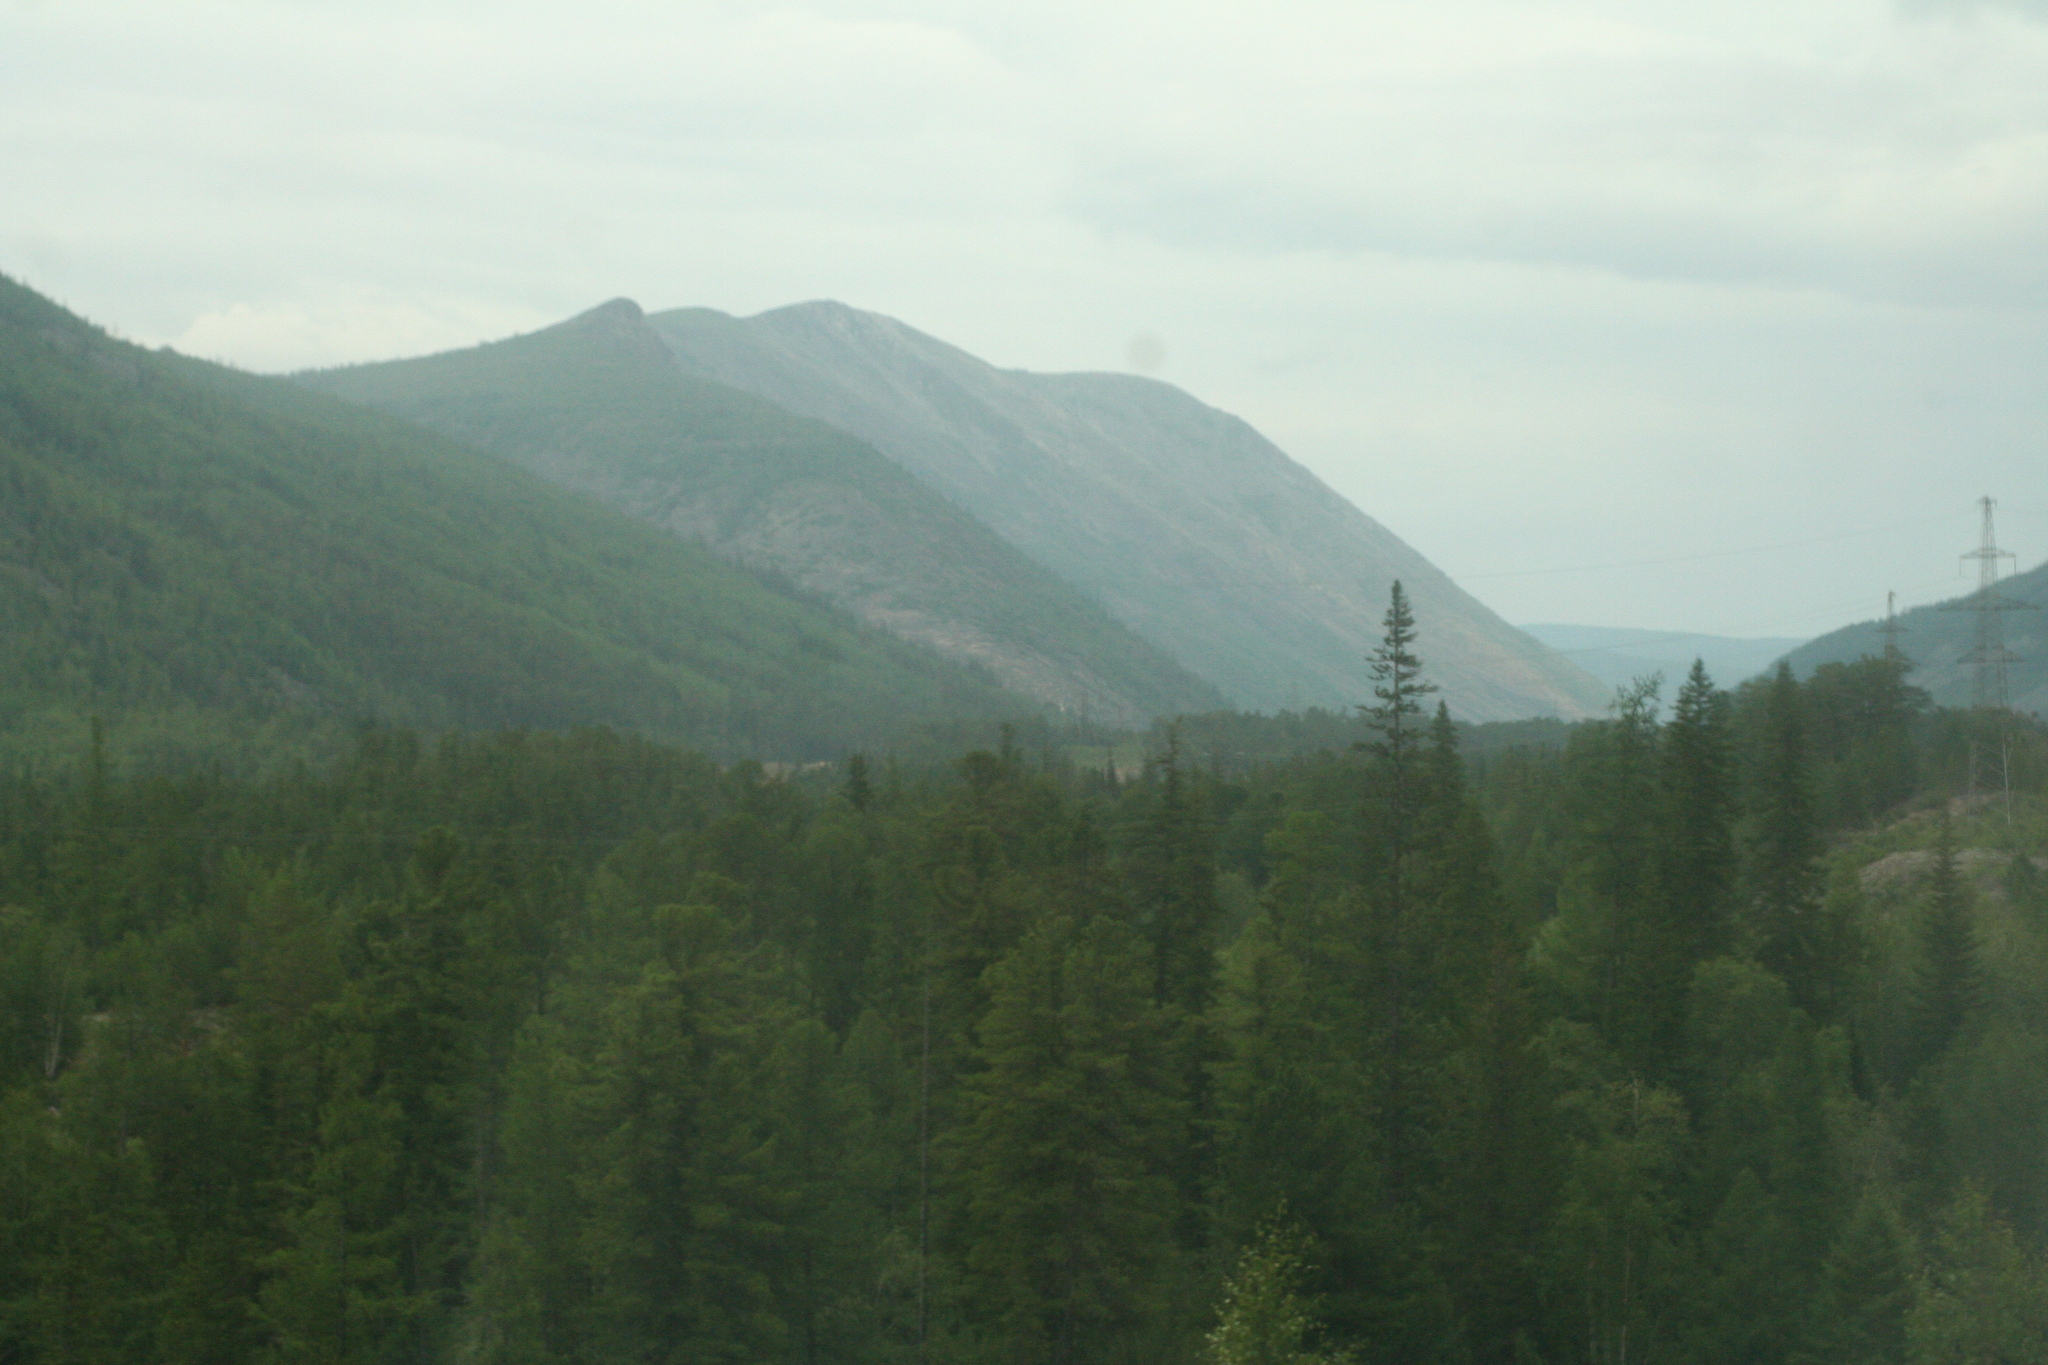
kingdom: Plantae
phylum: Tracheophyta
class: Pinopsida
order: Pinales
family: Pinaceae
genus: Picea
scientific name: Picea obovata
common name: Siberian spruce
